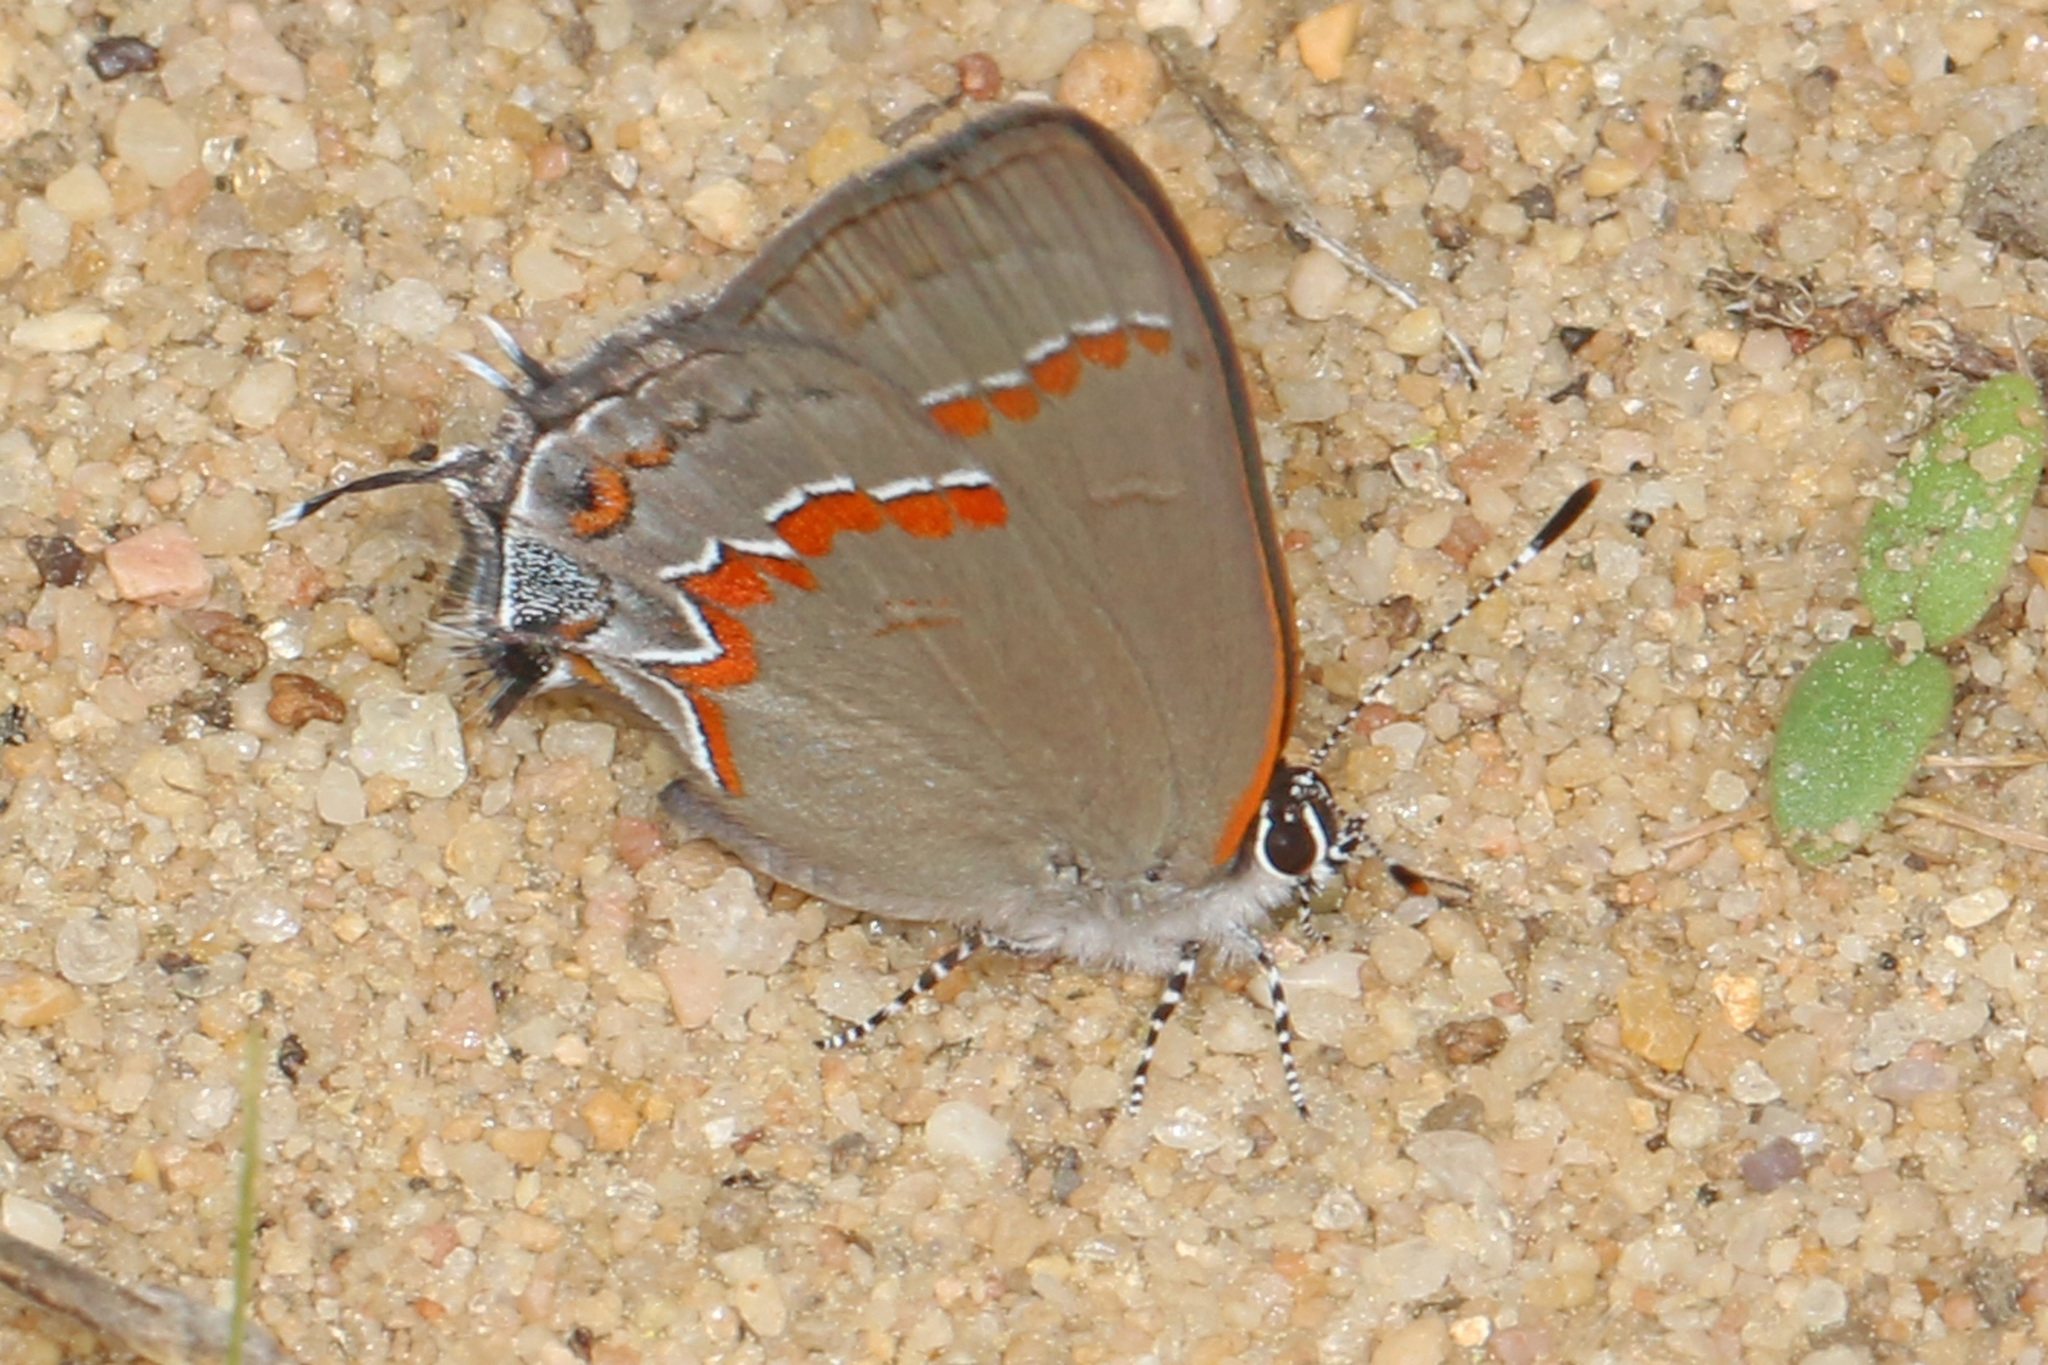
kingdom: Animalia
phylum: Arthropoda
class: Insecta
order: Lepidoptera
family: Lycaenidae
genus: Calycopis
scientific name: Calycopis cecrops
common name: Red-banded hairstreak
